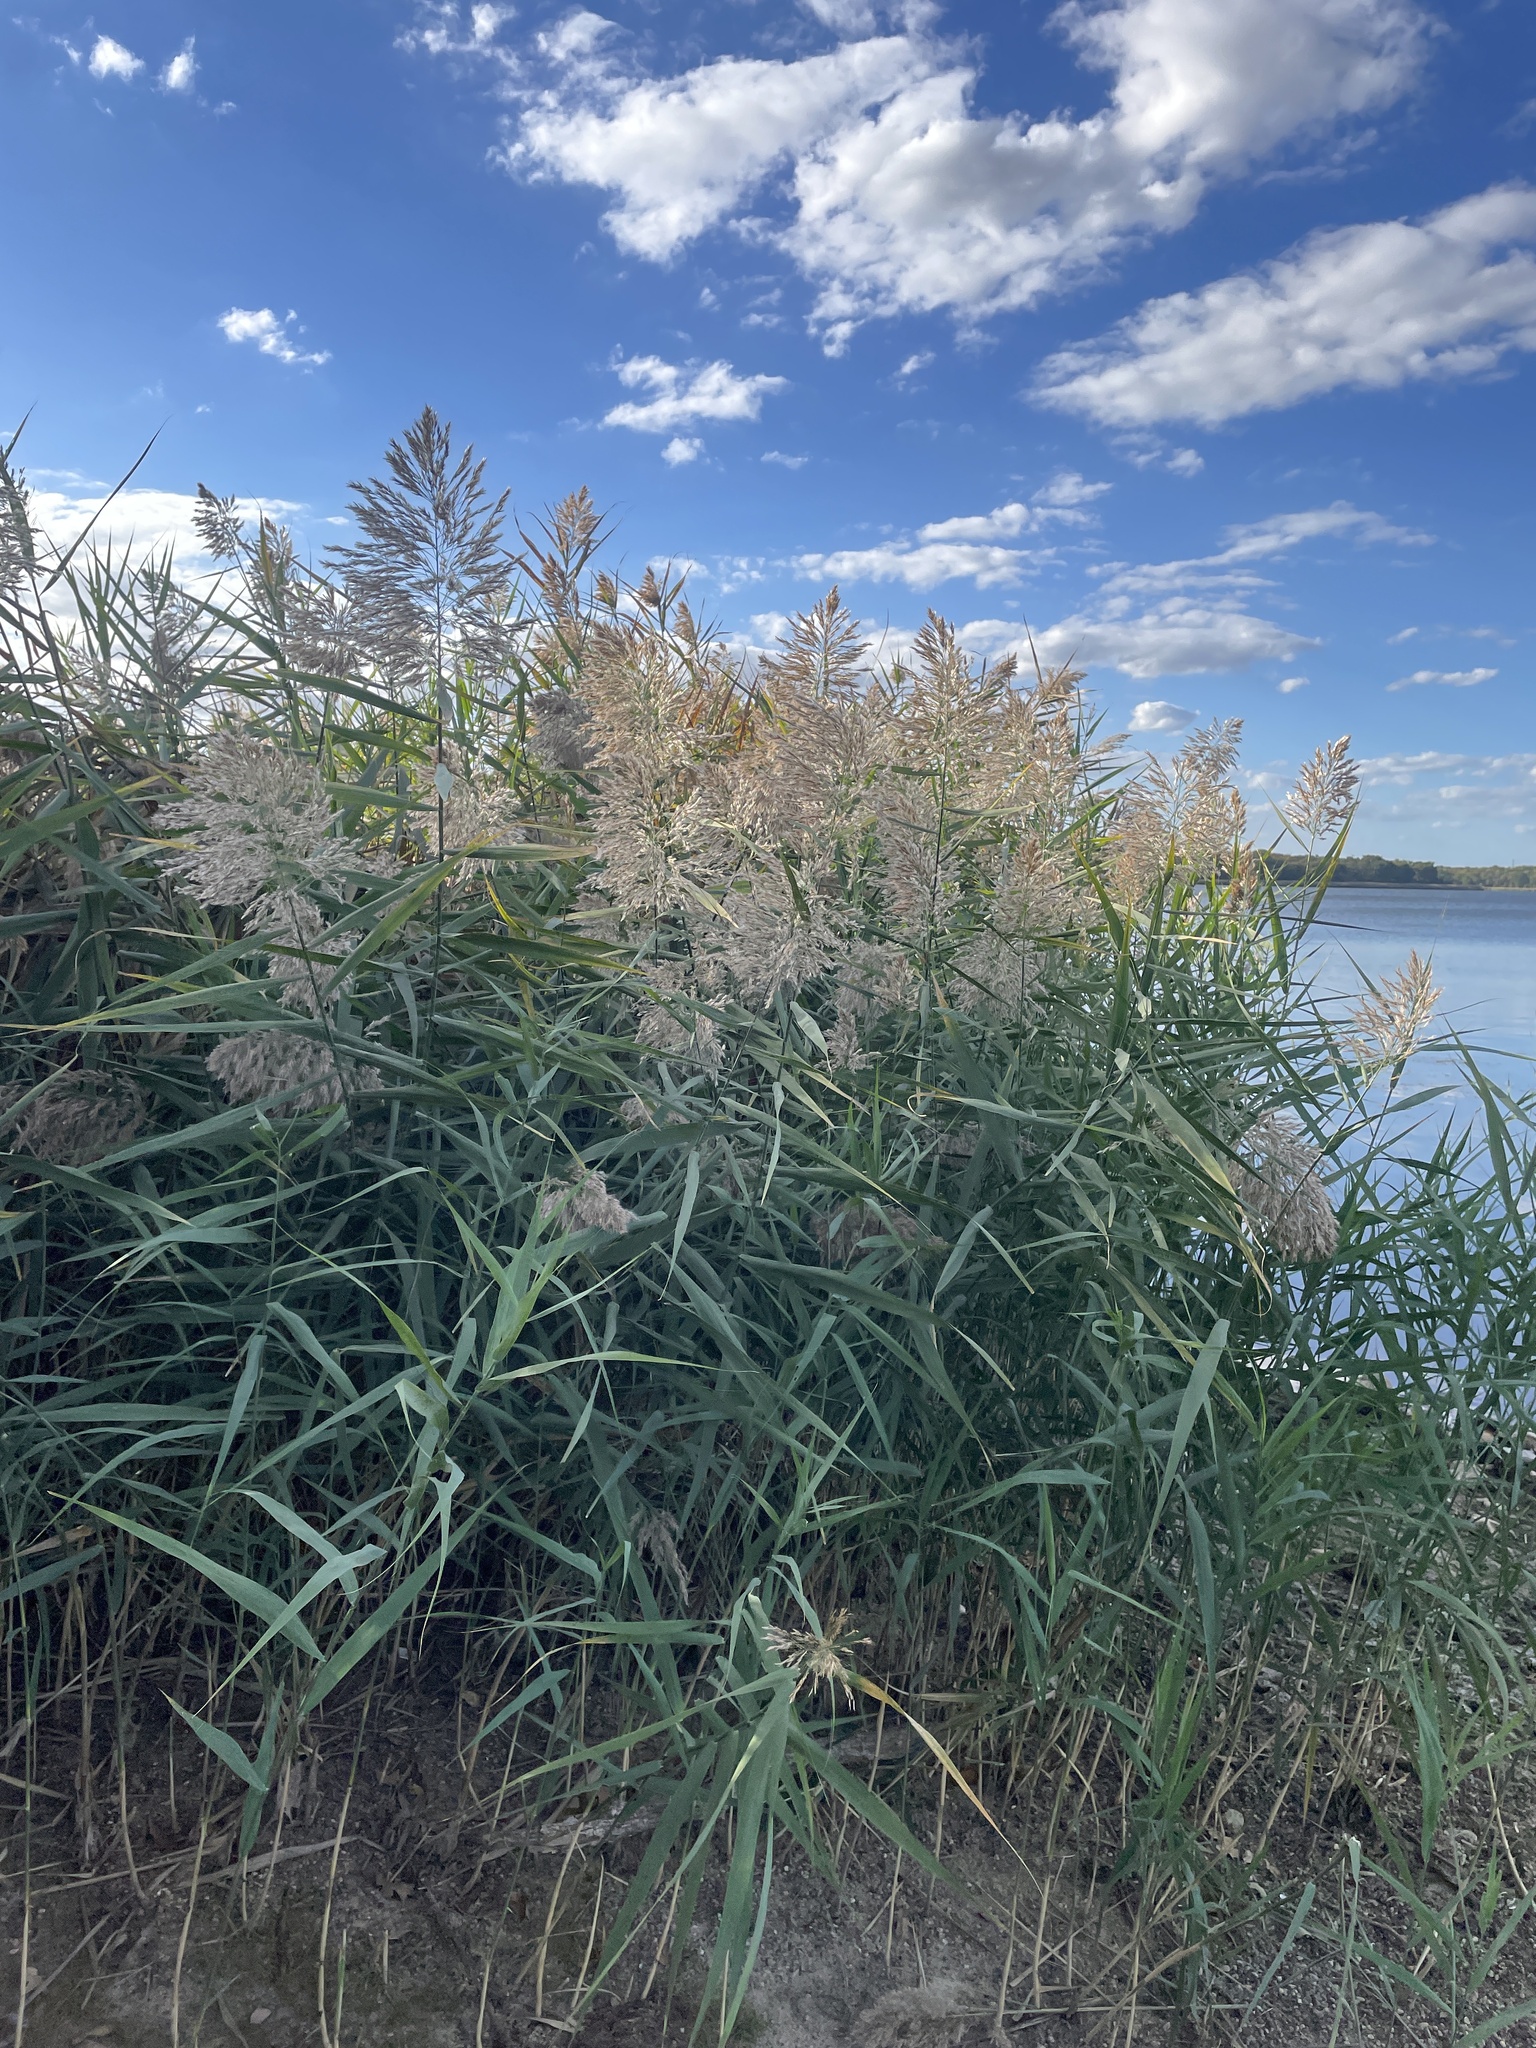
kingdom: Plantae
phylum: Tracheophyta
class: Liliopsida
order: Poales
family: Poaceae
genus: Phragmites
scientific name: Phragmites australis
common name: Common reed
